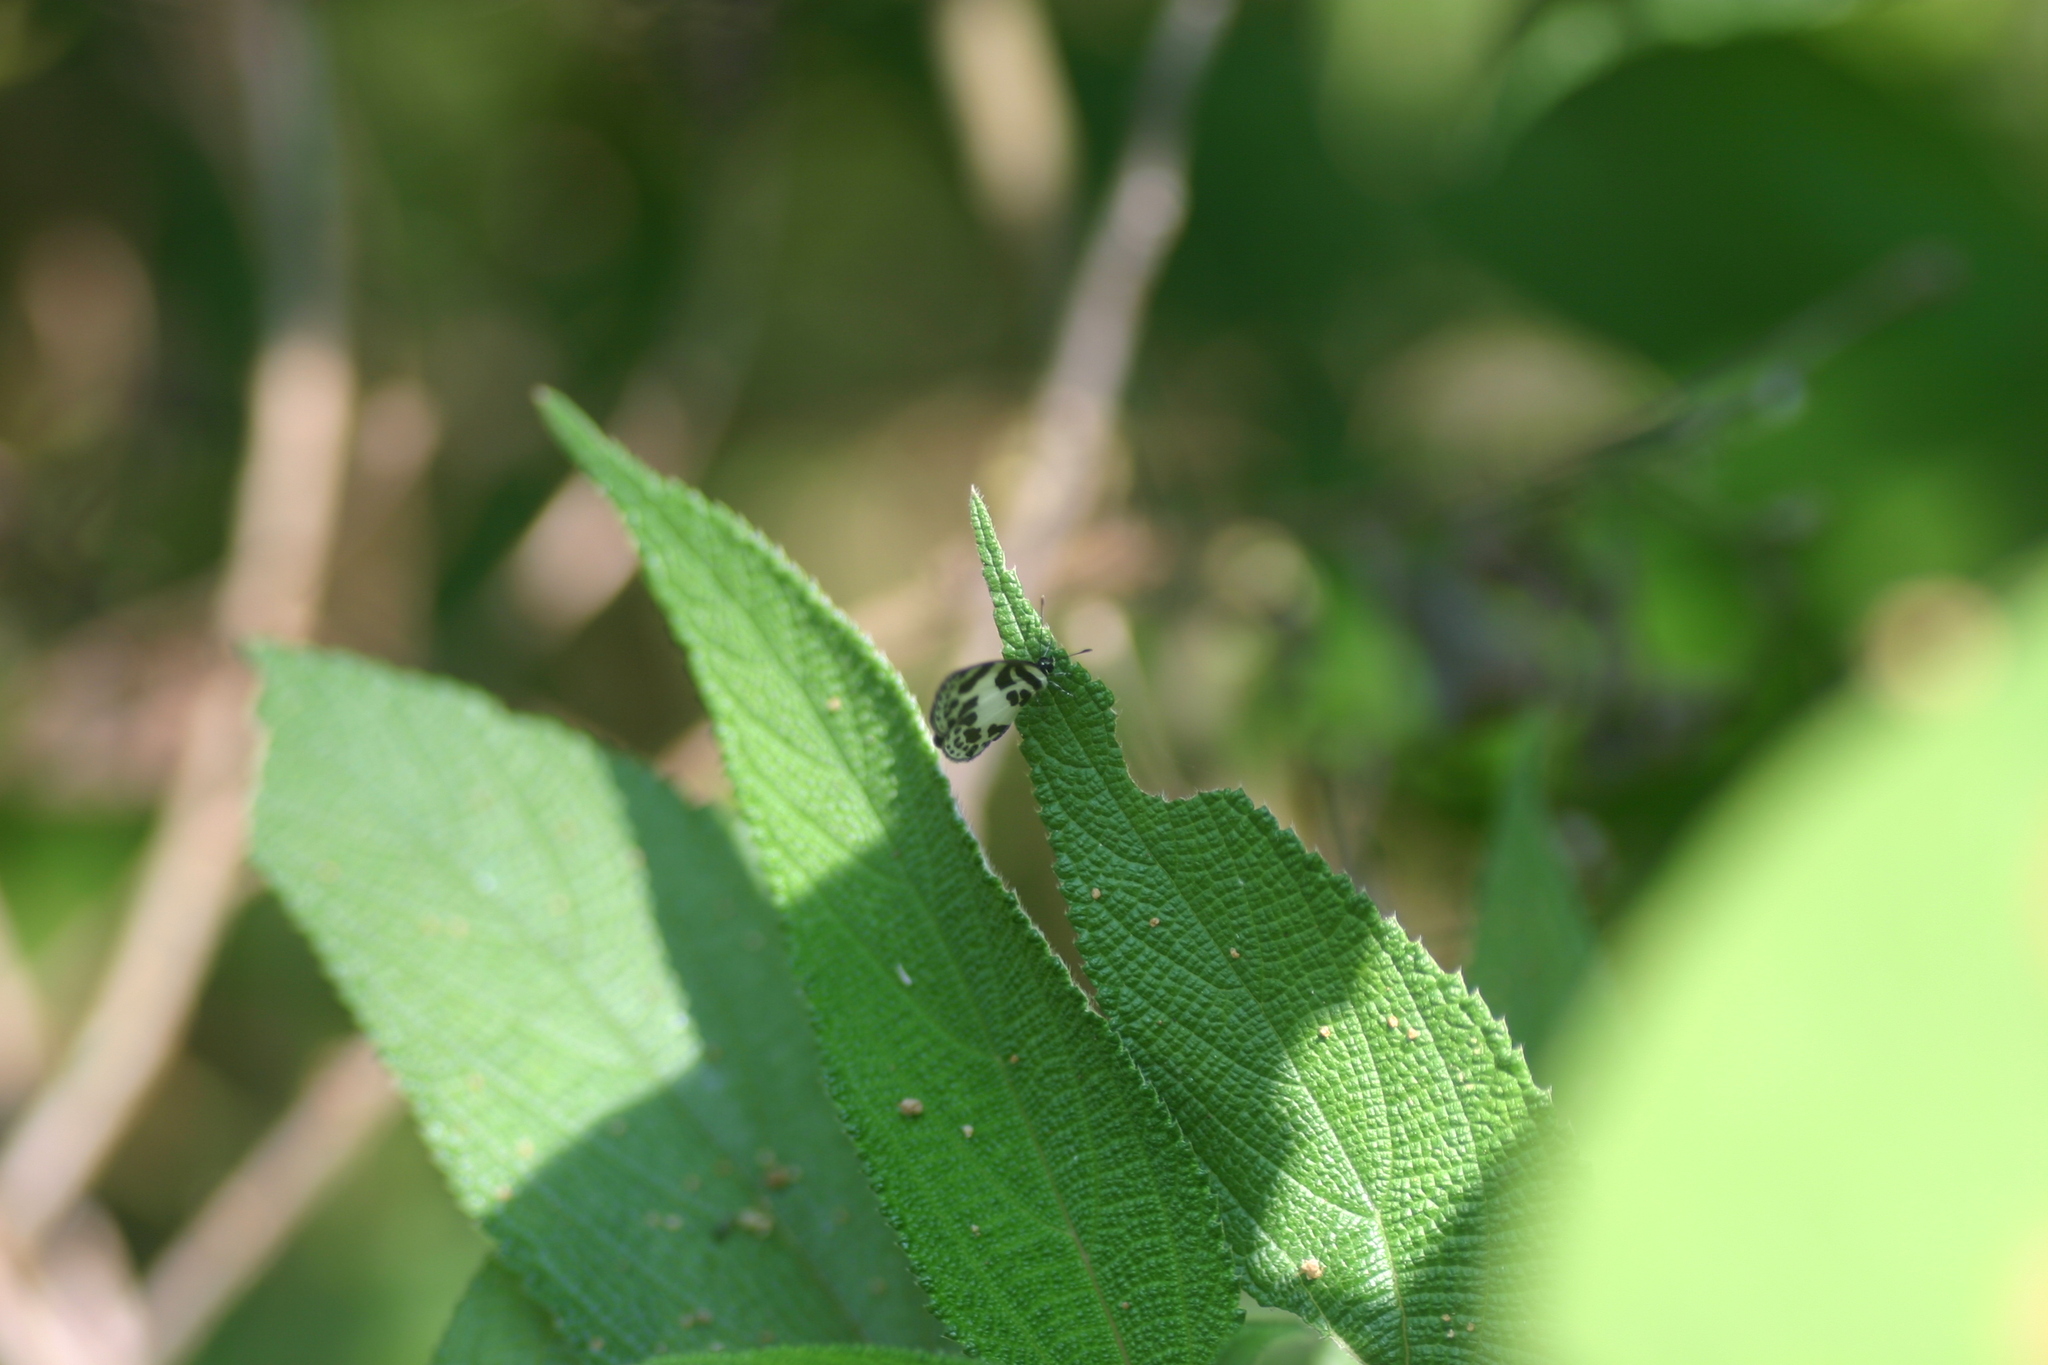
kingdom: Animalia
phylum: Arthropoda
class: Insecta
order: Lepidoptera
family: Lycaenidae
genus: Discolampa
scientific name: Discolampa ethion
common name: Banded blue pierrot
